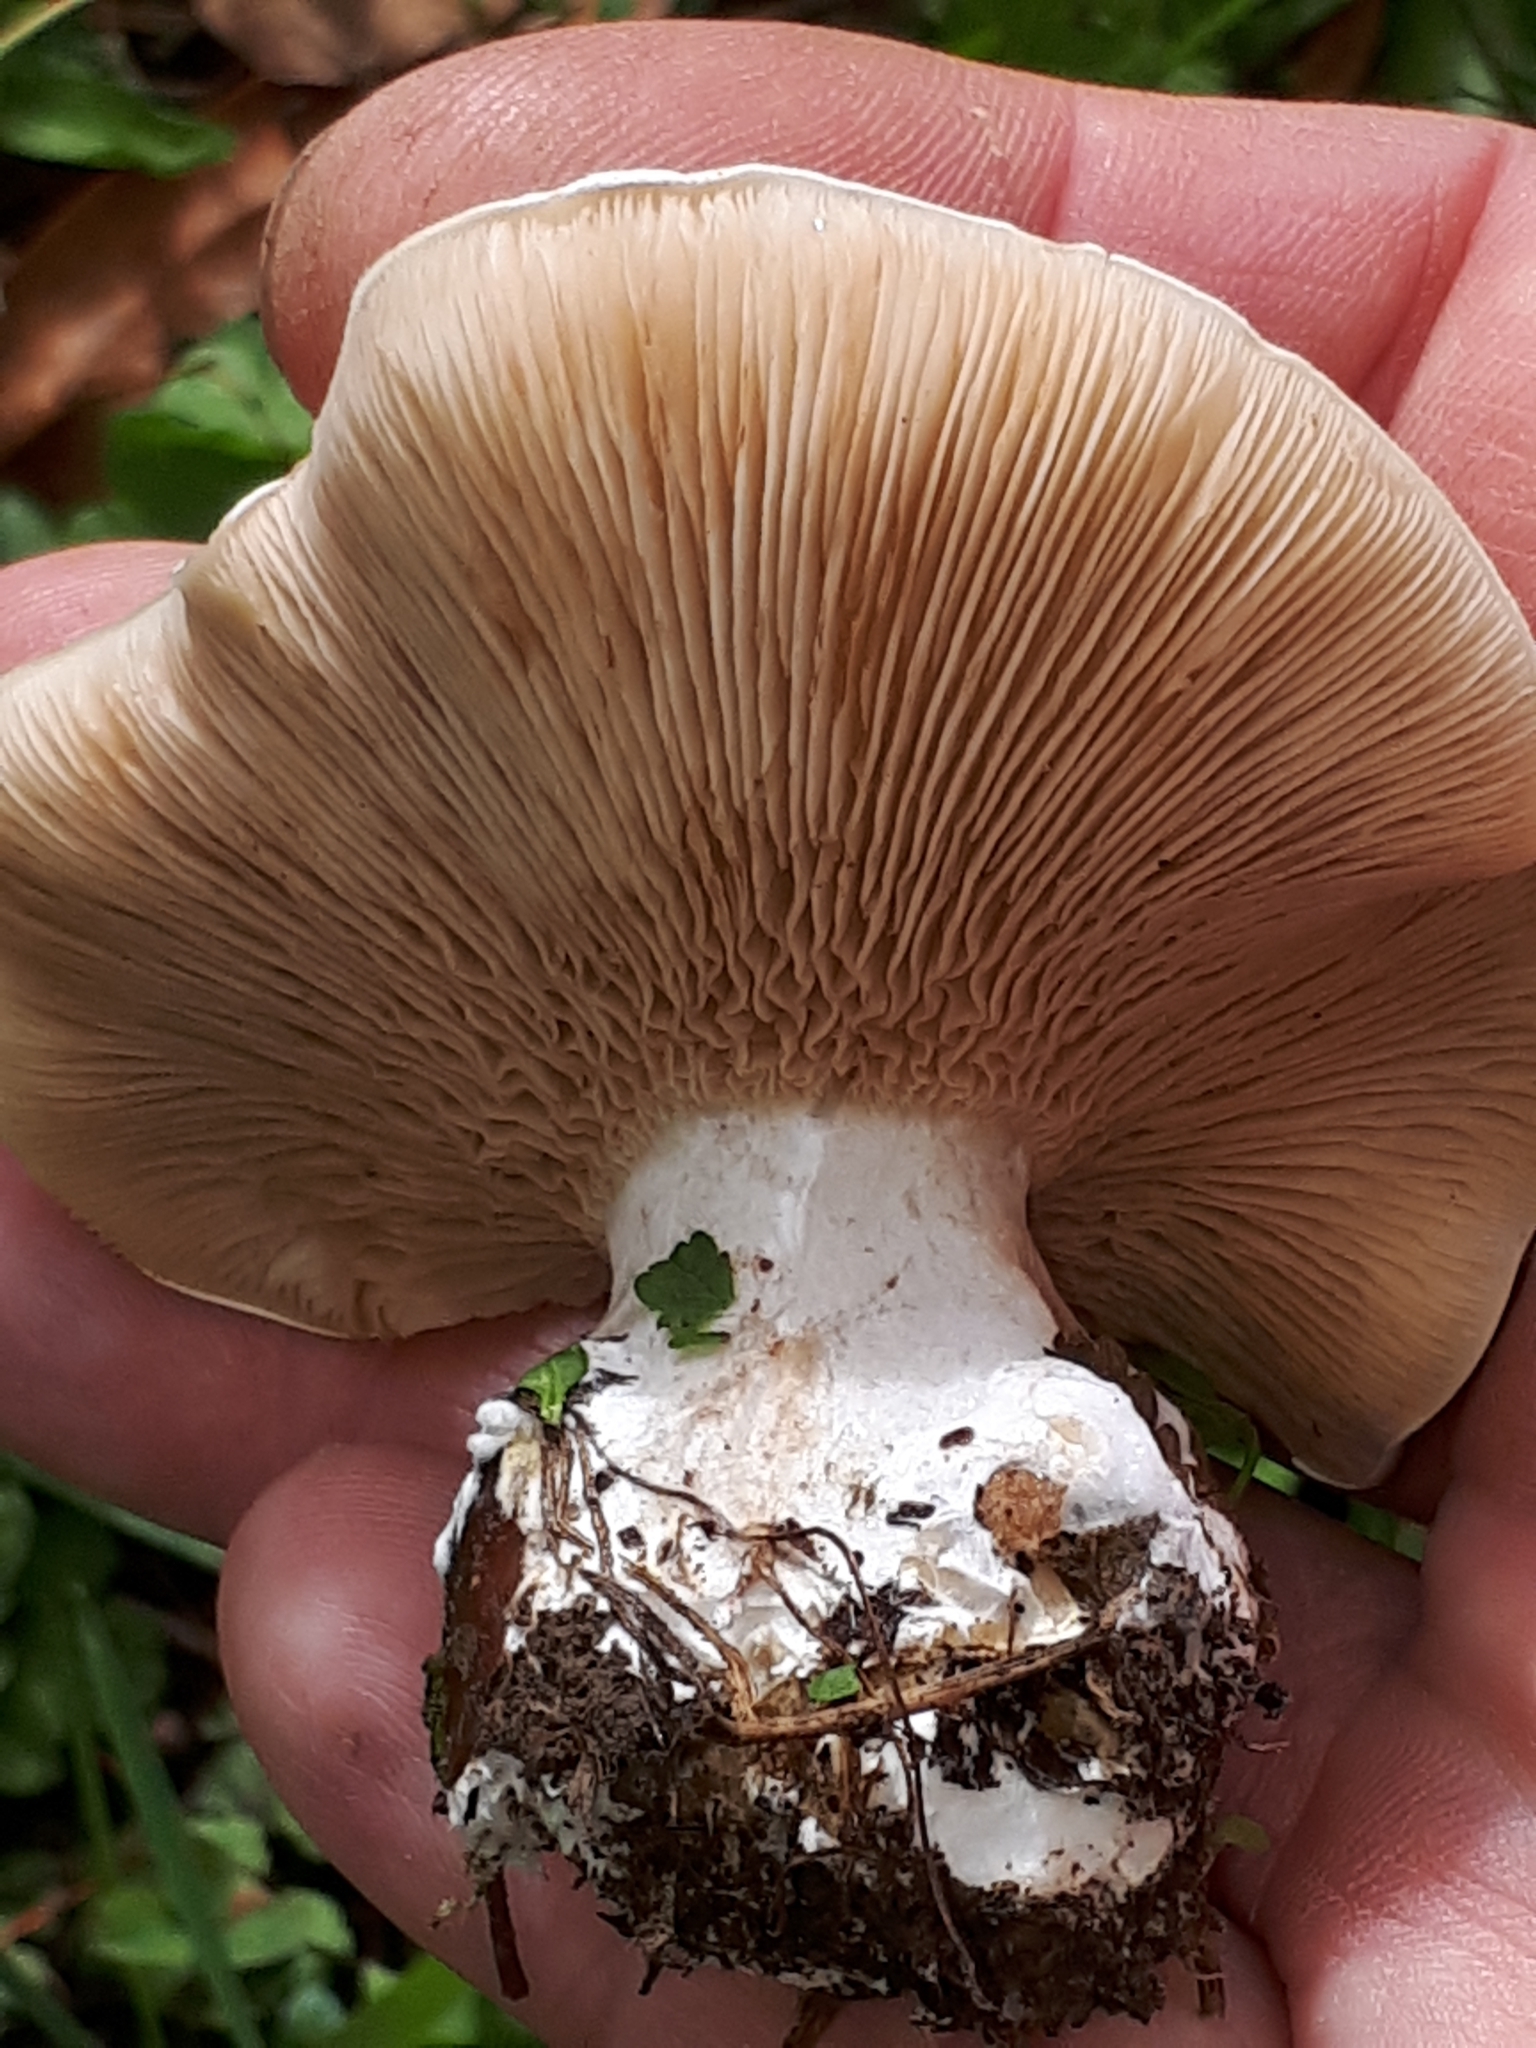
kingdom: Fungi
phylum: Basidiomycota
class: Agaricomycetes
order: Agaricales
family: Entolomataceae
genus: Clitopilus
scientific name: Clitopilus prunulus
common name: The miller
